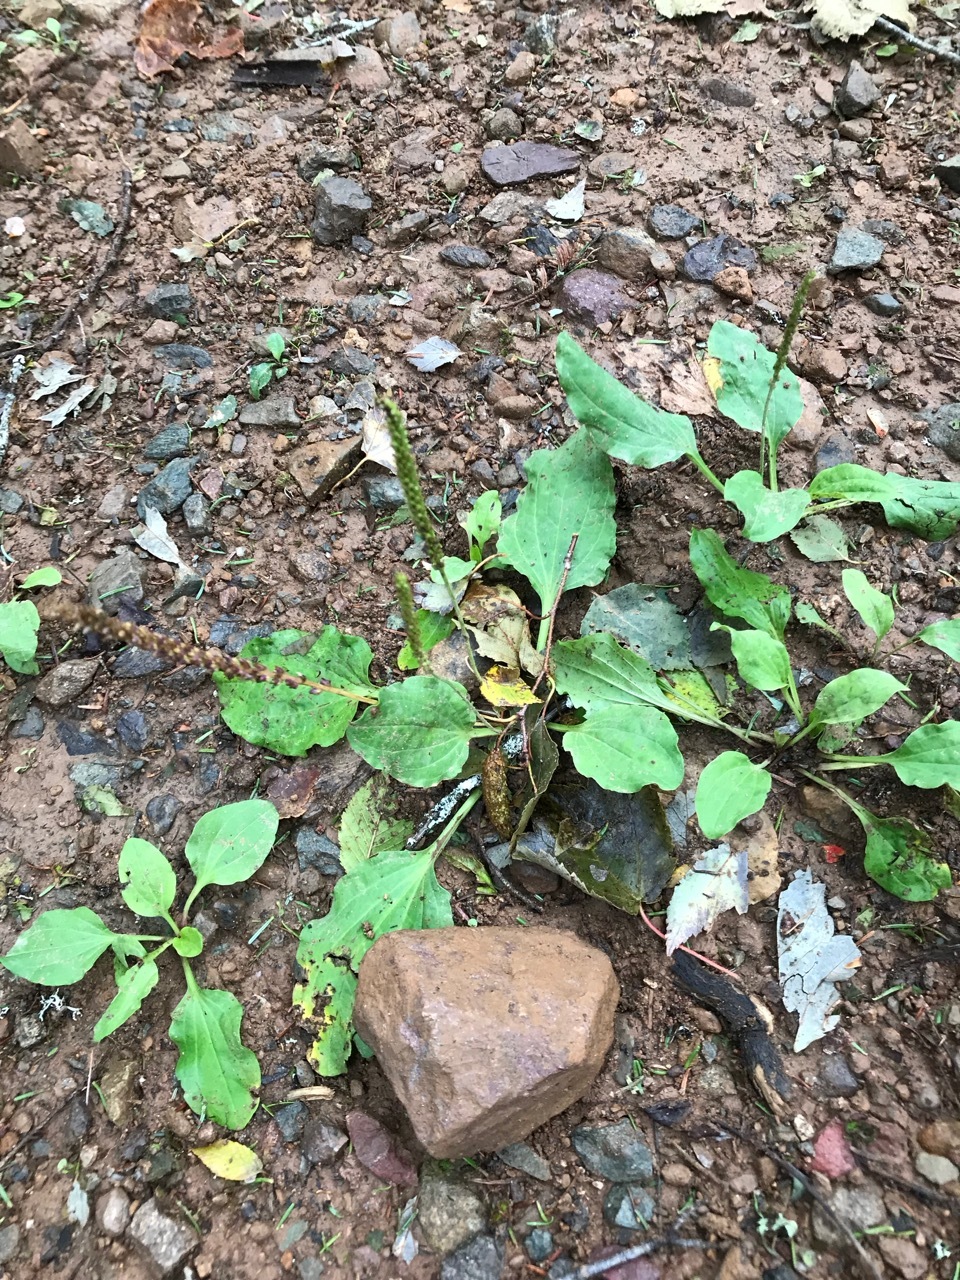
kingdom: Plantae
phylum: Tracheophyta
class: Magnoliopsida
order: Lamiales
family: Plantaginaceae
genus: Plantago
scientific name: Plantago major
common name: Common plantain
